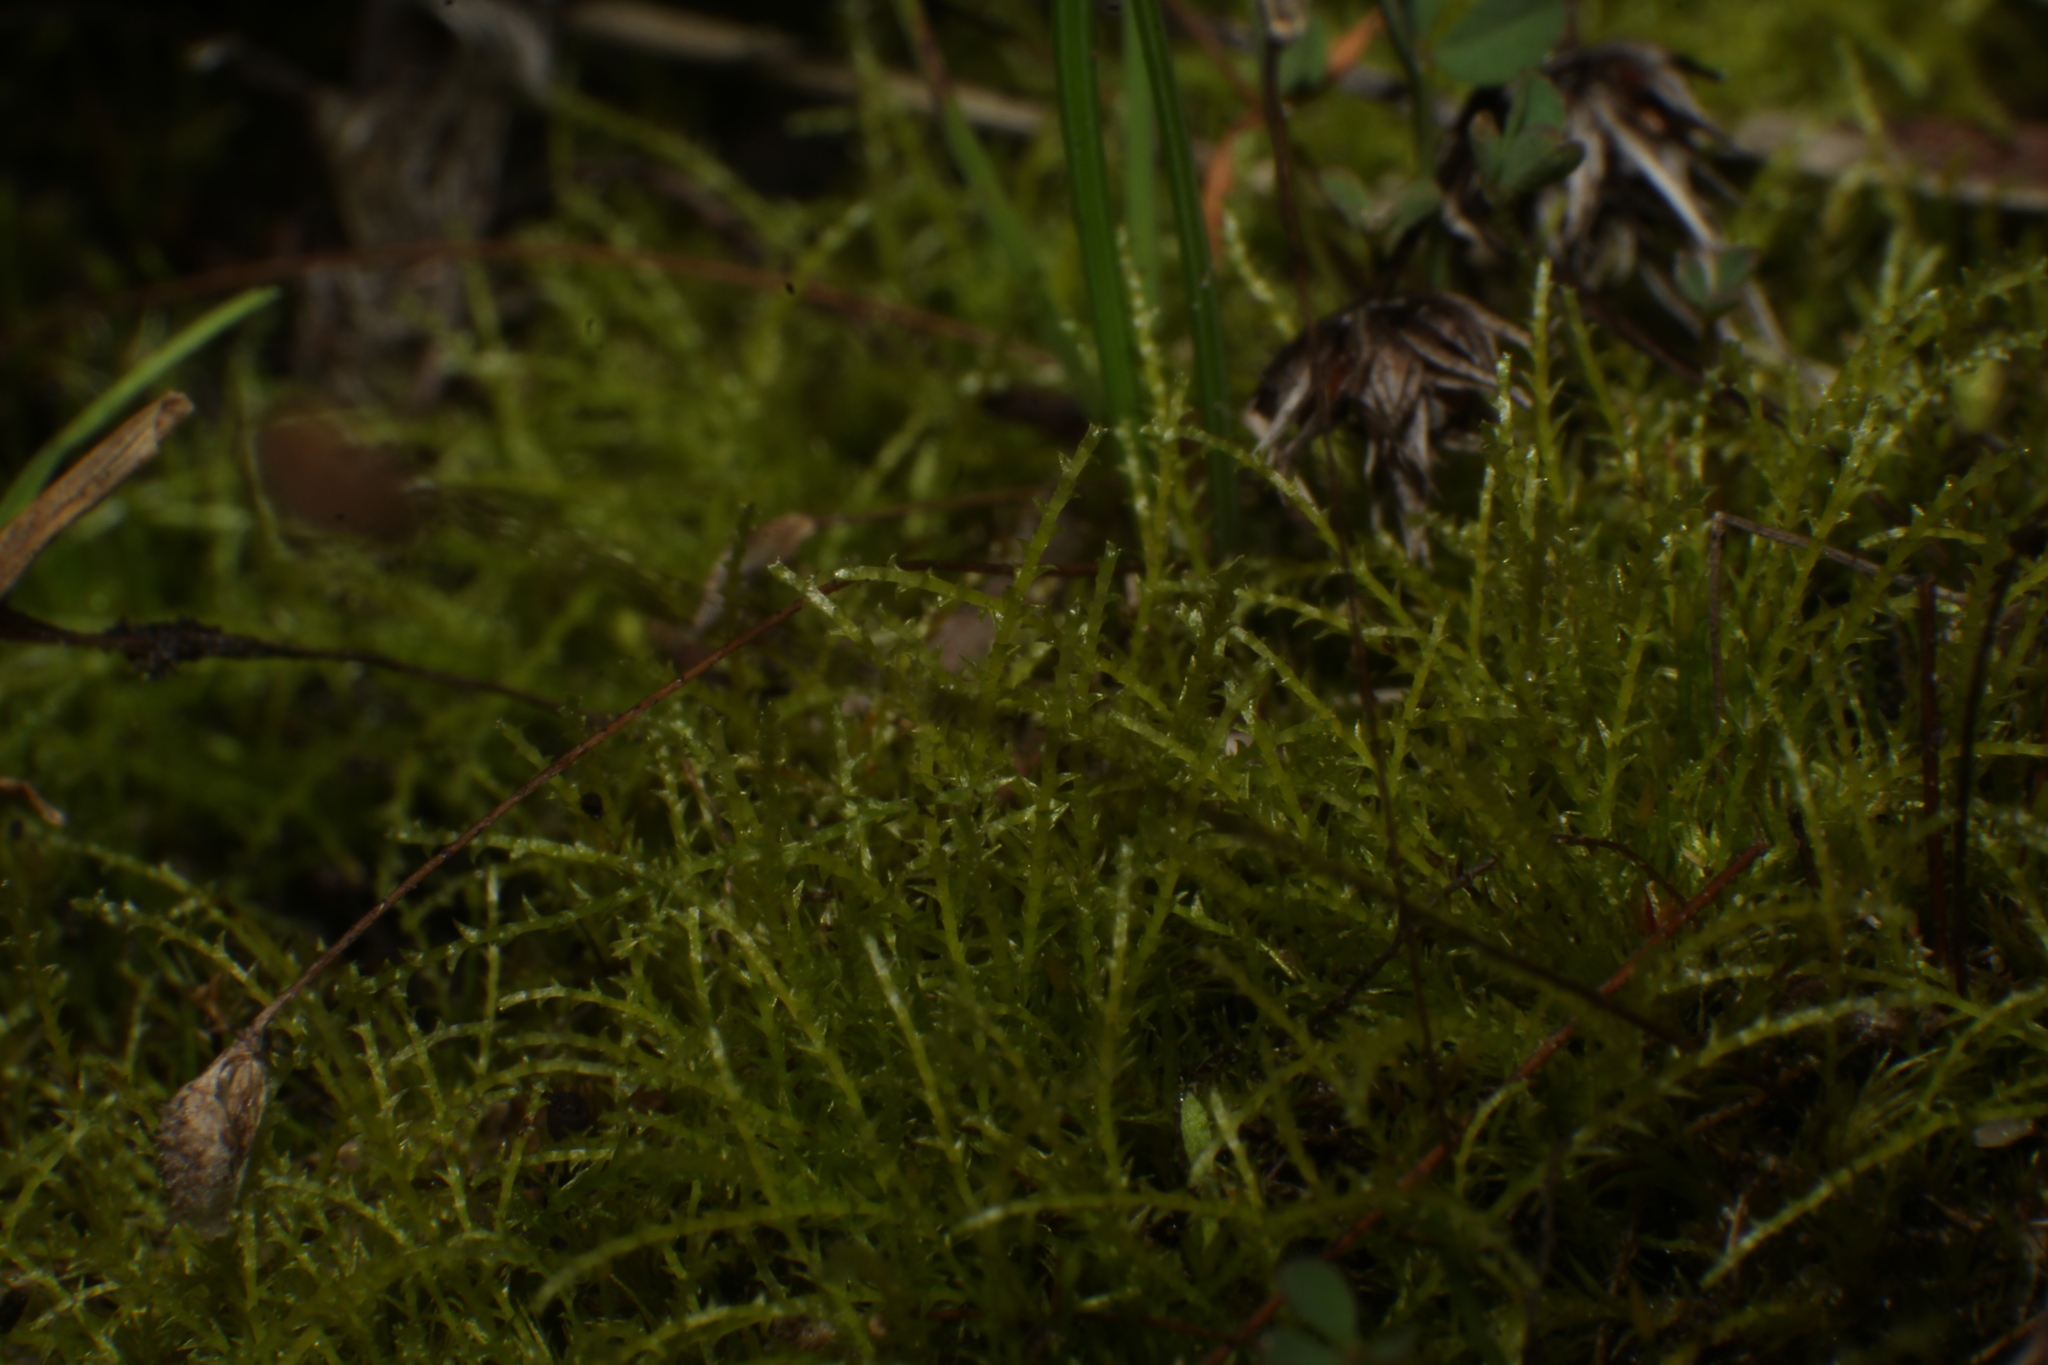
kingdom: Plantae
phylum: Bryophyta
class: Bryopsida
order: Archidiales
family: Archidiaceae
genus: Archidium
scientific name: Archidium rehmannii
